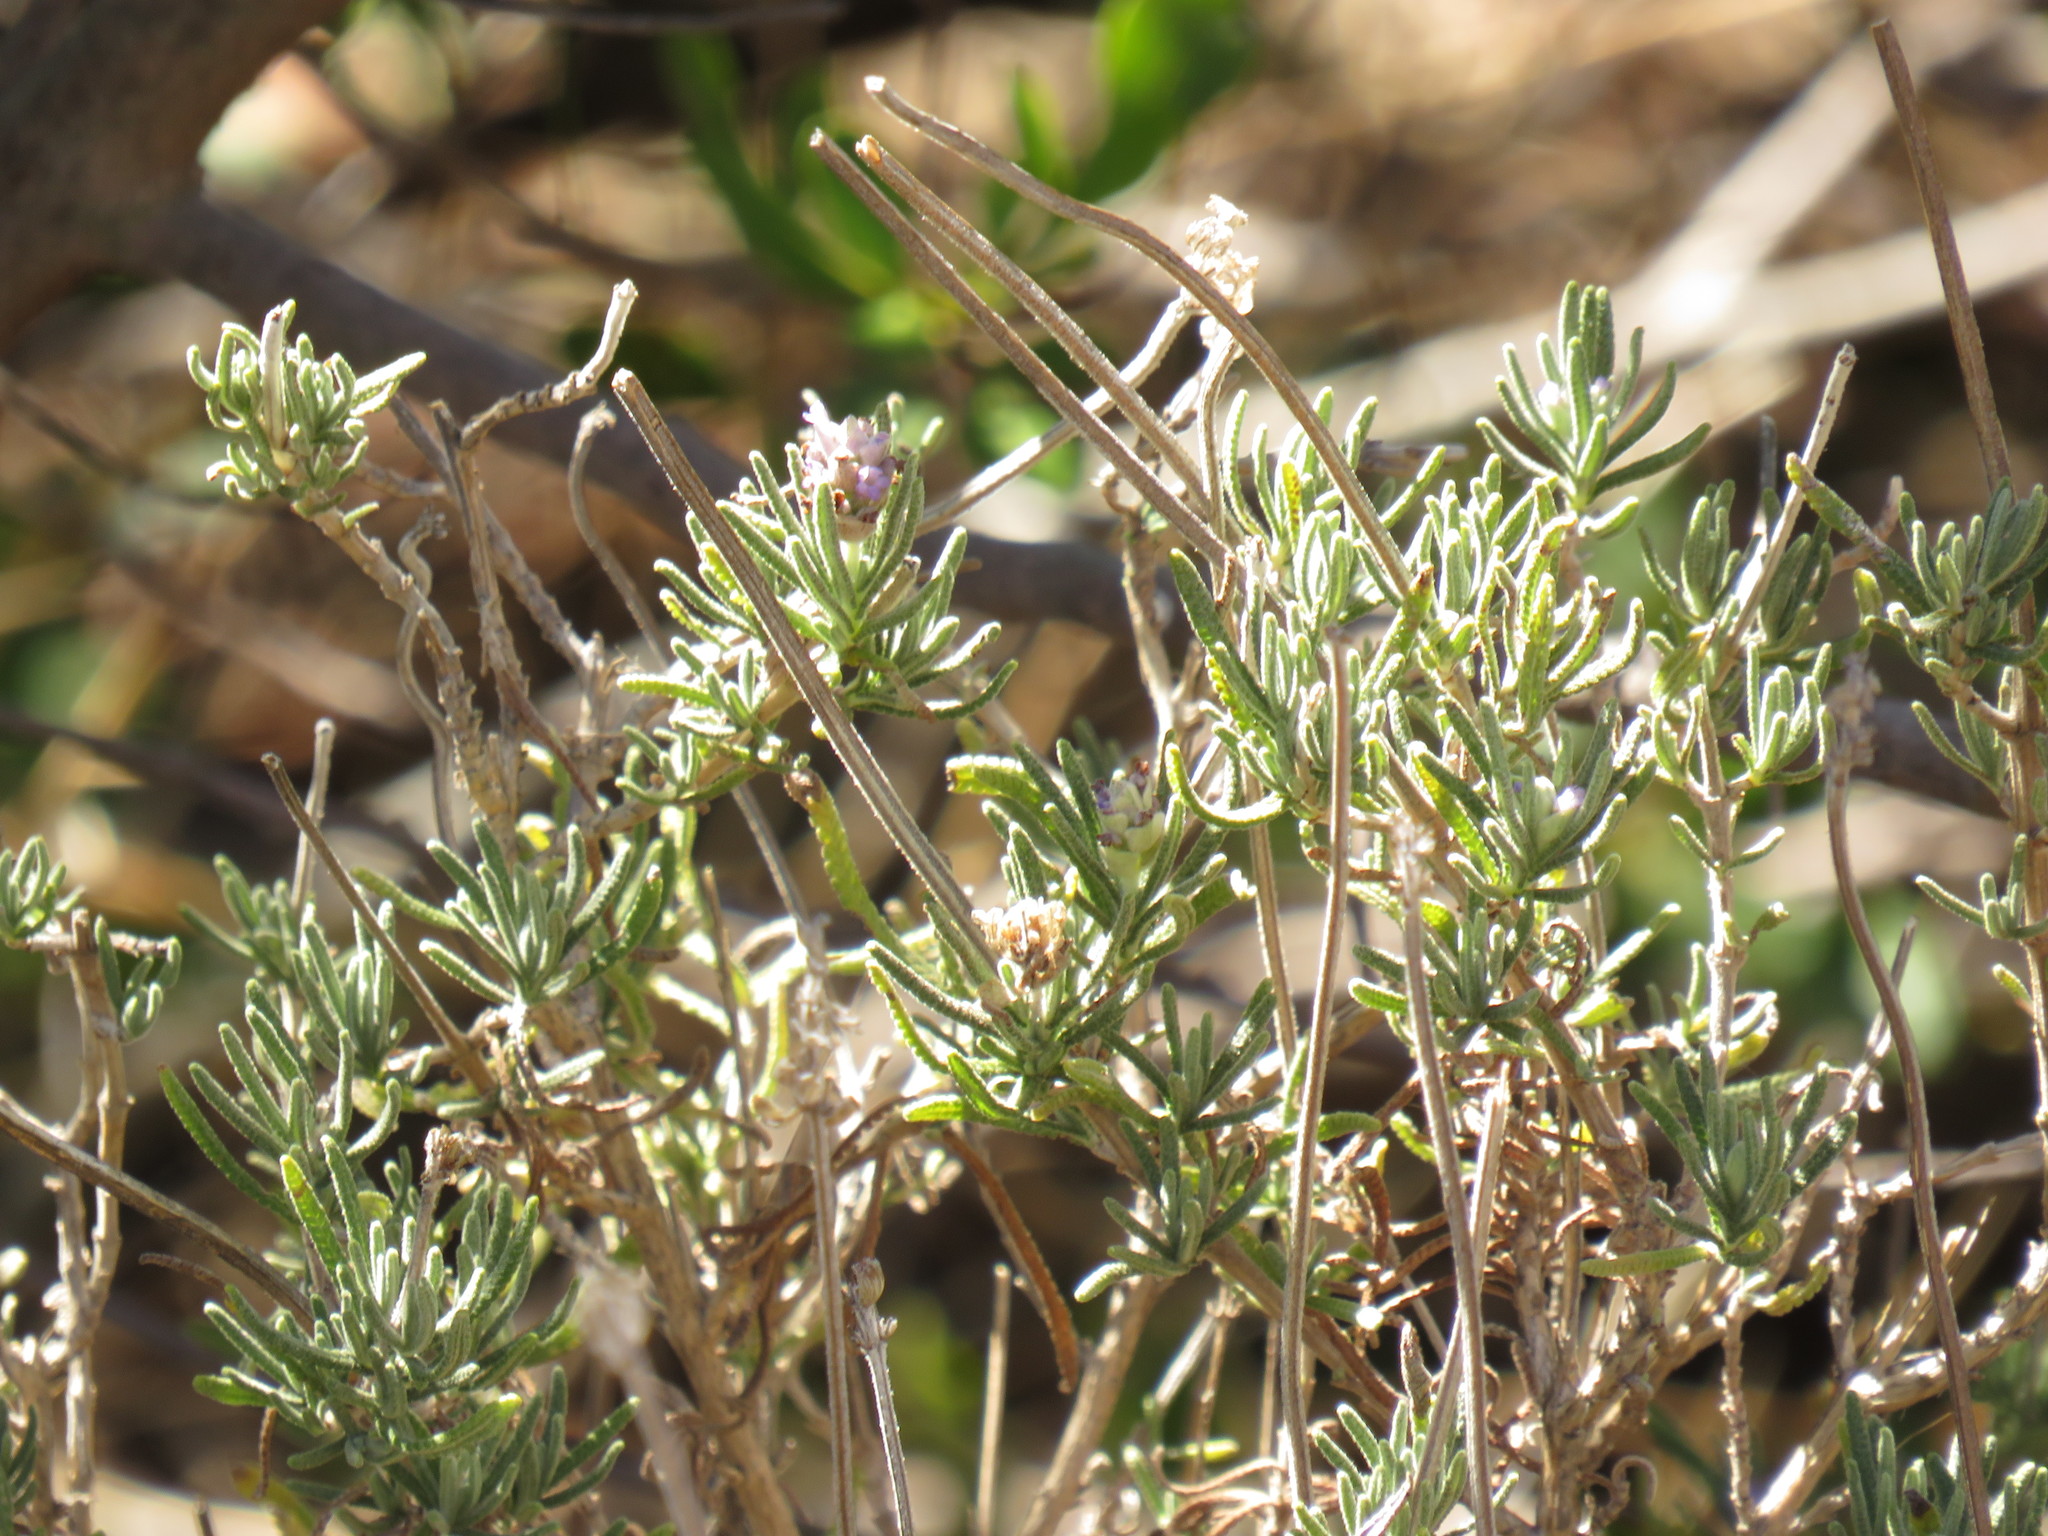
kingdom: Plantae
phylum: Tracheophyta
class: Magnoliopsida
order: Lamiales
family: Lamiaceae
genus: Lavandula
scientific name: Lavandula dentata
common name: French lavender
